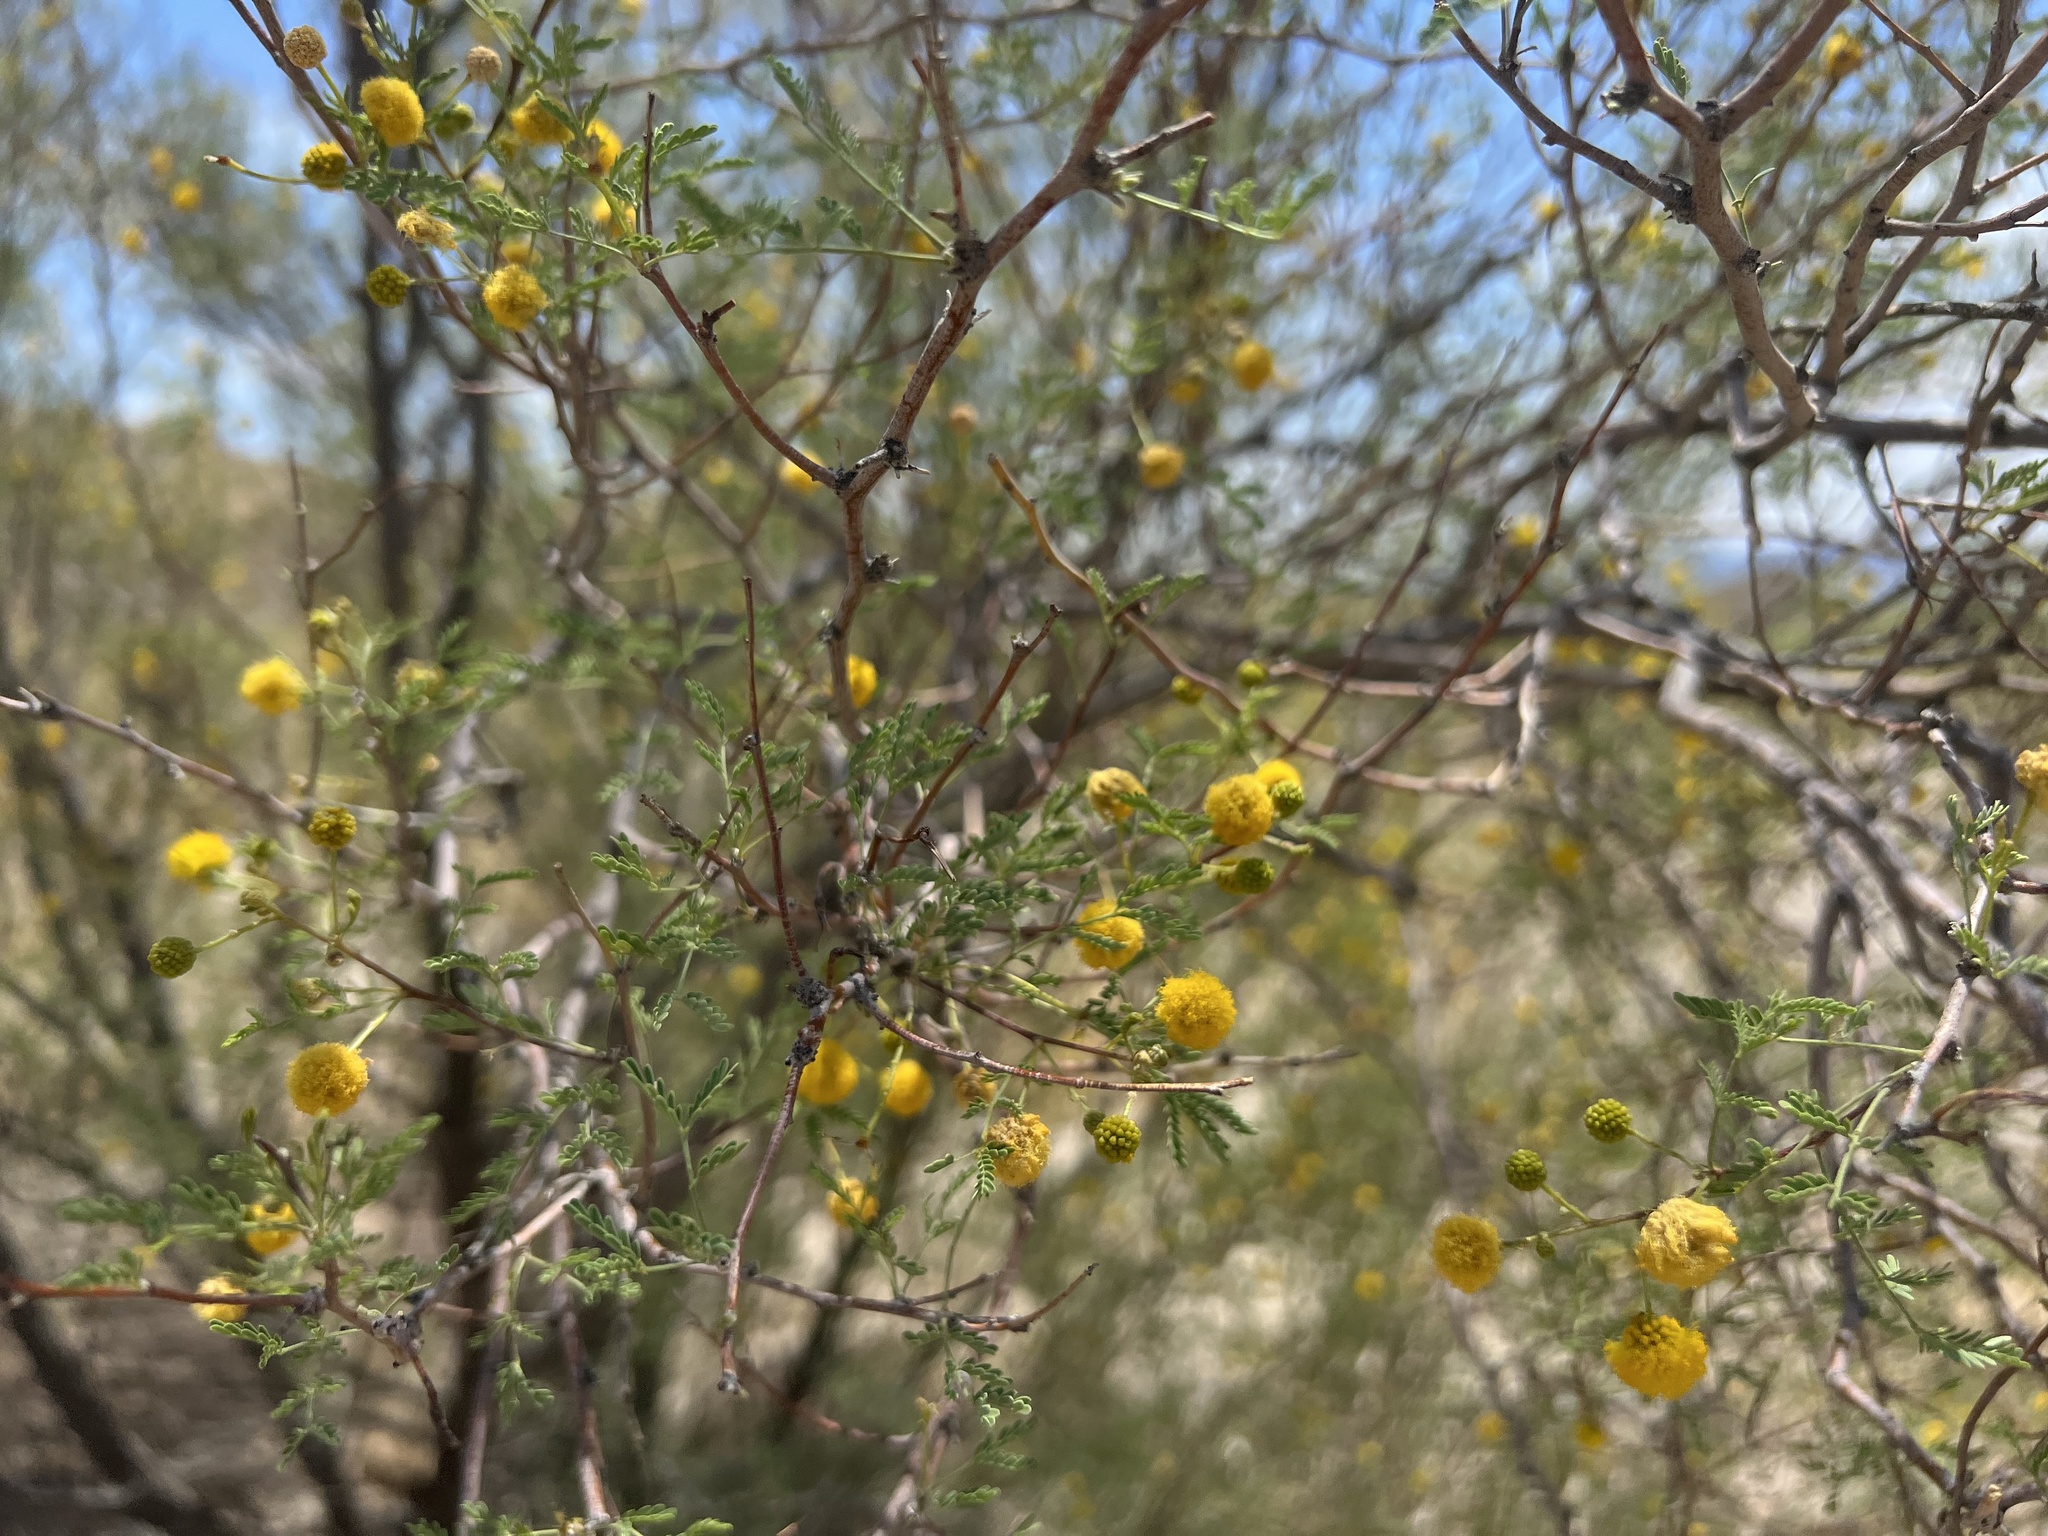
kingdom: Plantae
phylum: Tracheophyta
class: Magnoliopsida
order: Fabales
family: Fabaceae
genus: Vachellia
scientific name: Vachellia constricta
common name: Mescat acacia
